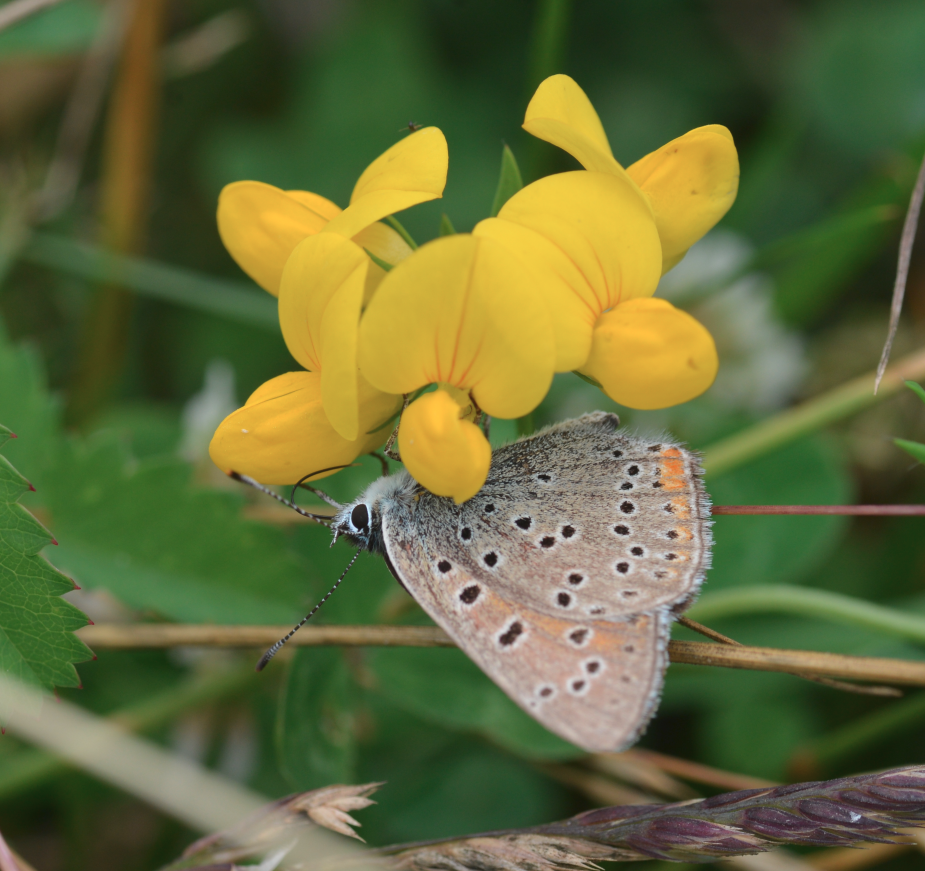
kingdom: Animalia
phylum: Arthropoda
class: Insecta
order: Lepidoptera
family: Lycaenidae
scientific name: Lycaenidae
